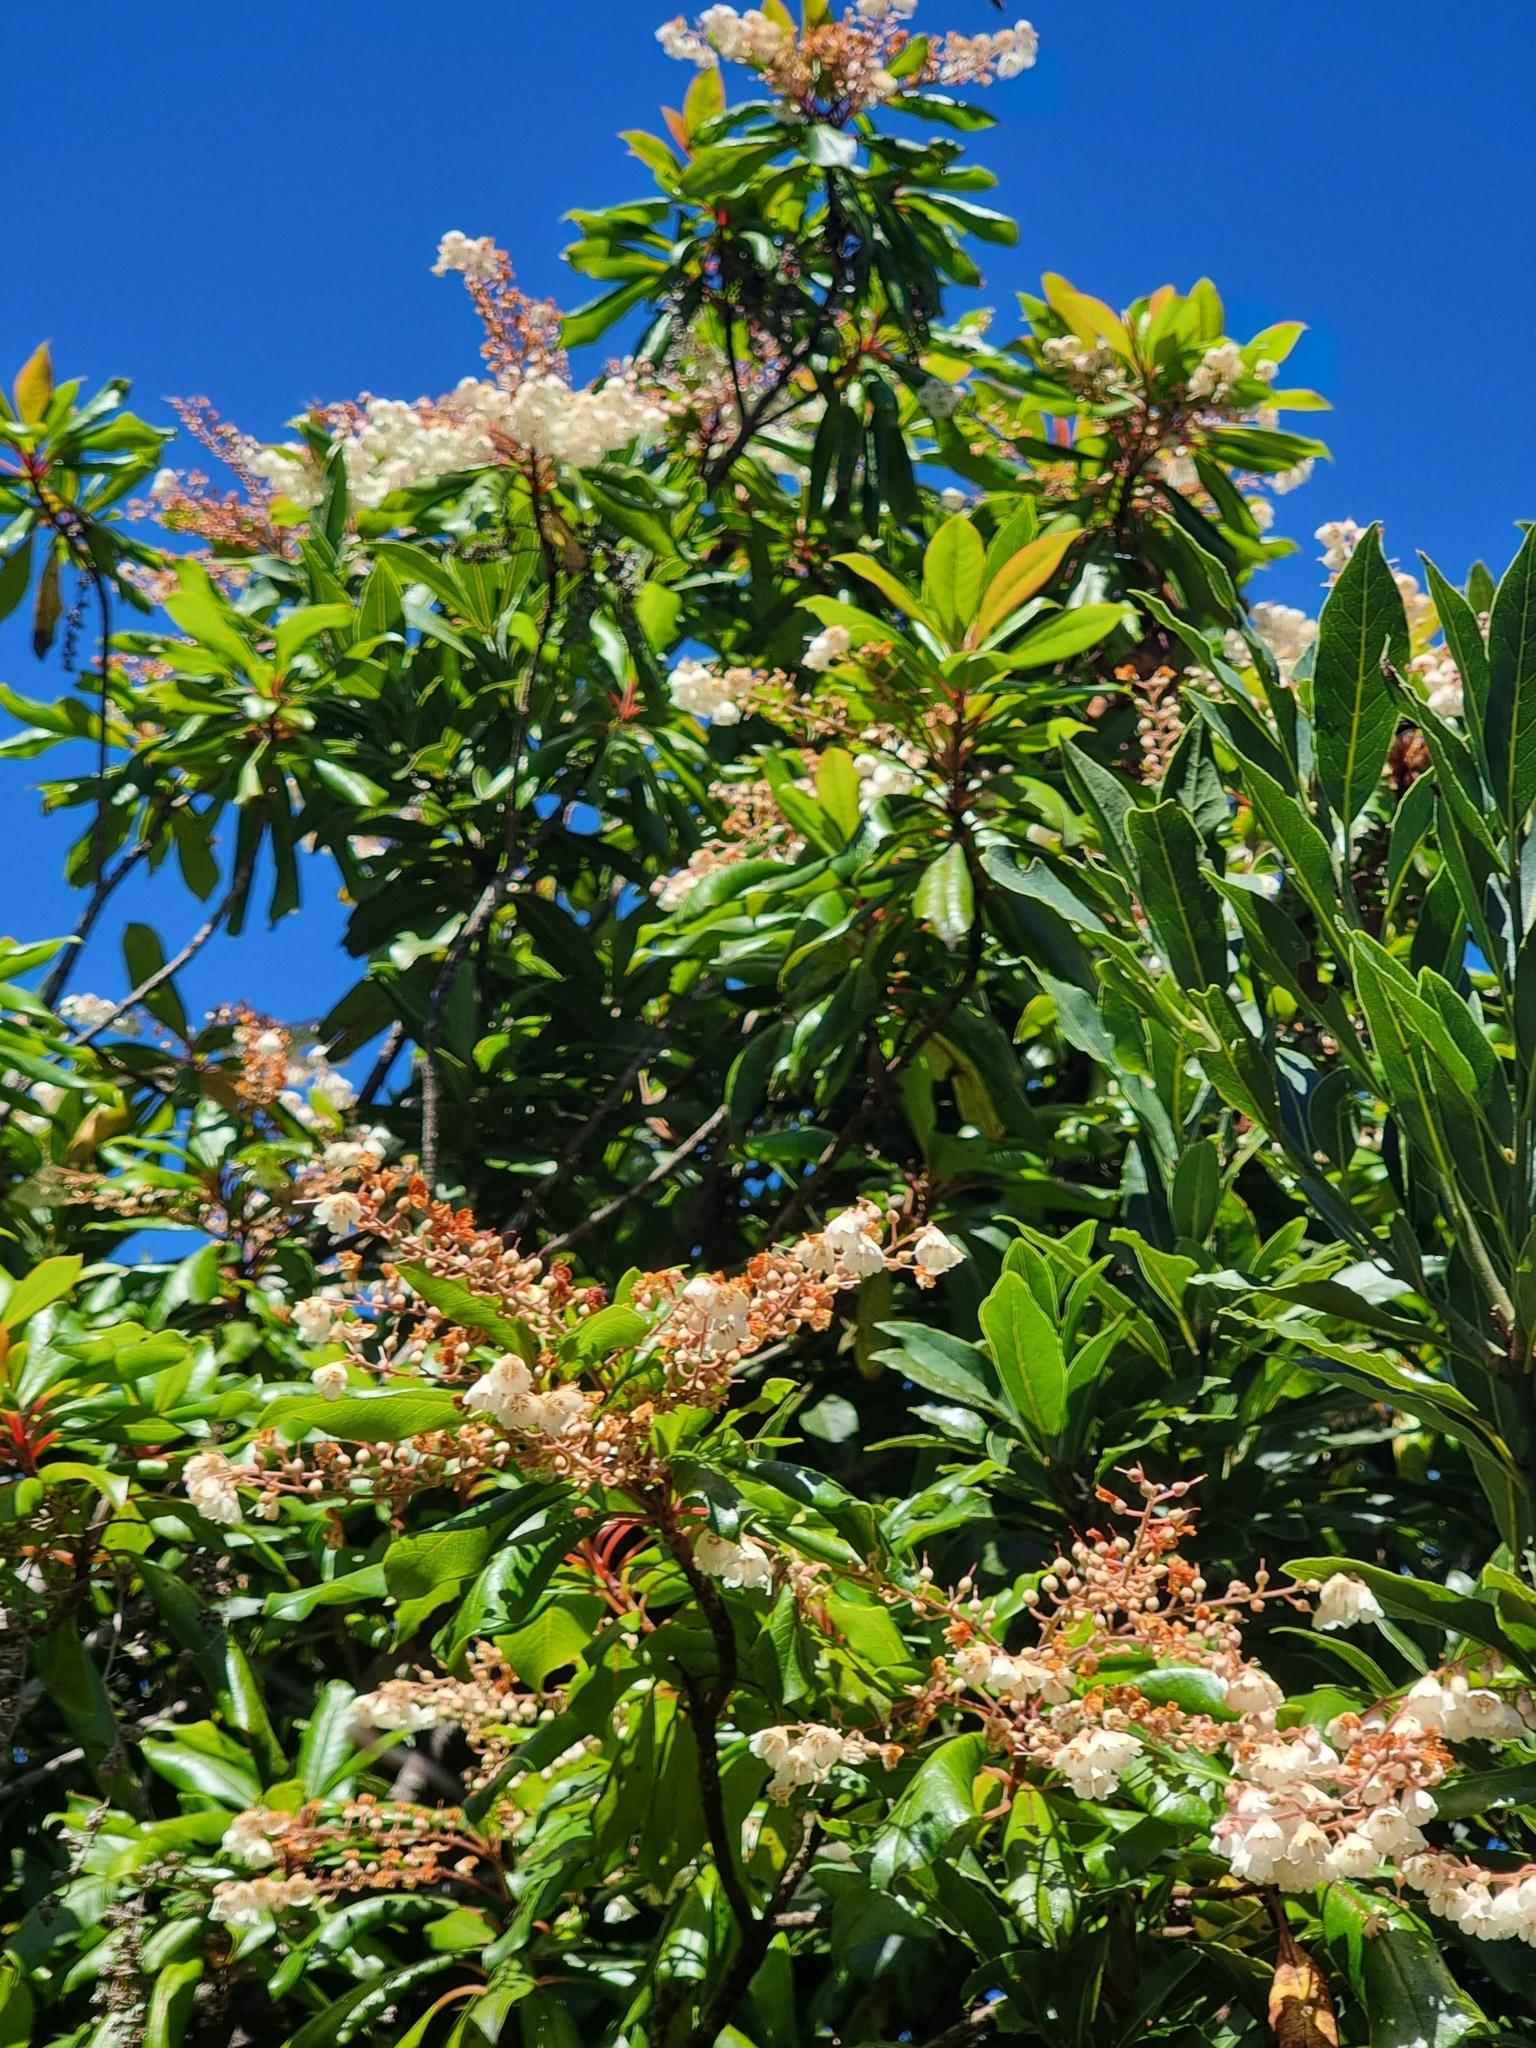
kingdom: Plantae
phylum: Tracheophyta
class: Magnoliopsida
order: Ericales
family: Clethraceae
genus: Clethra
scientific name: Clethra arborea
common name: Lily-of-the-valley-tree
